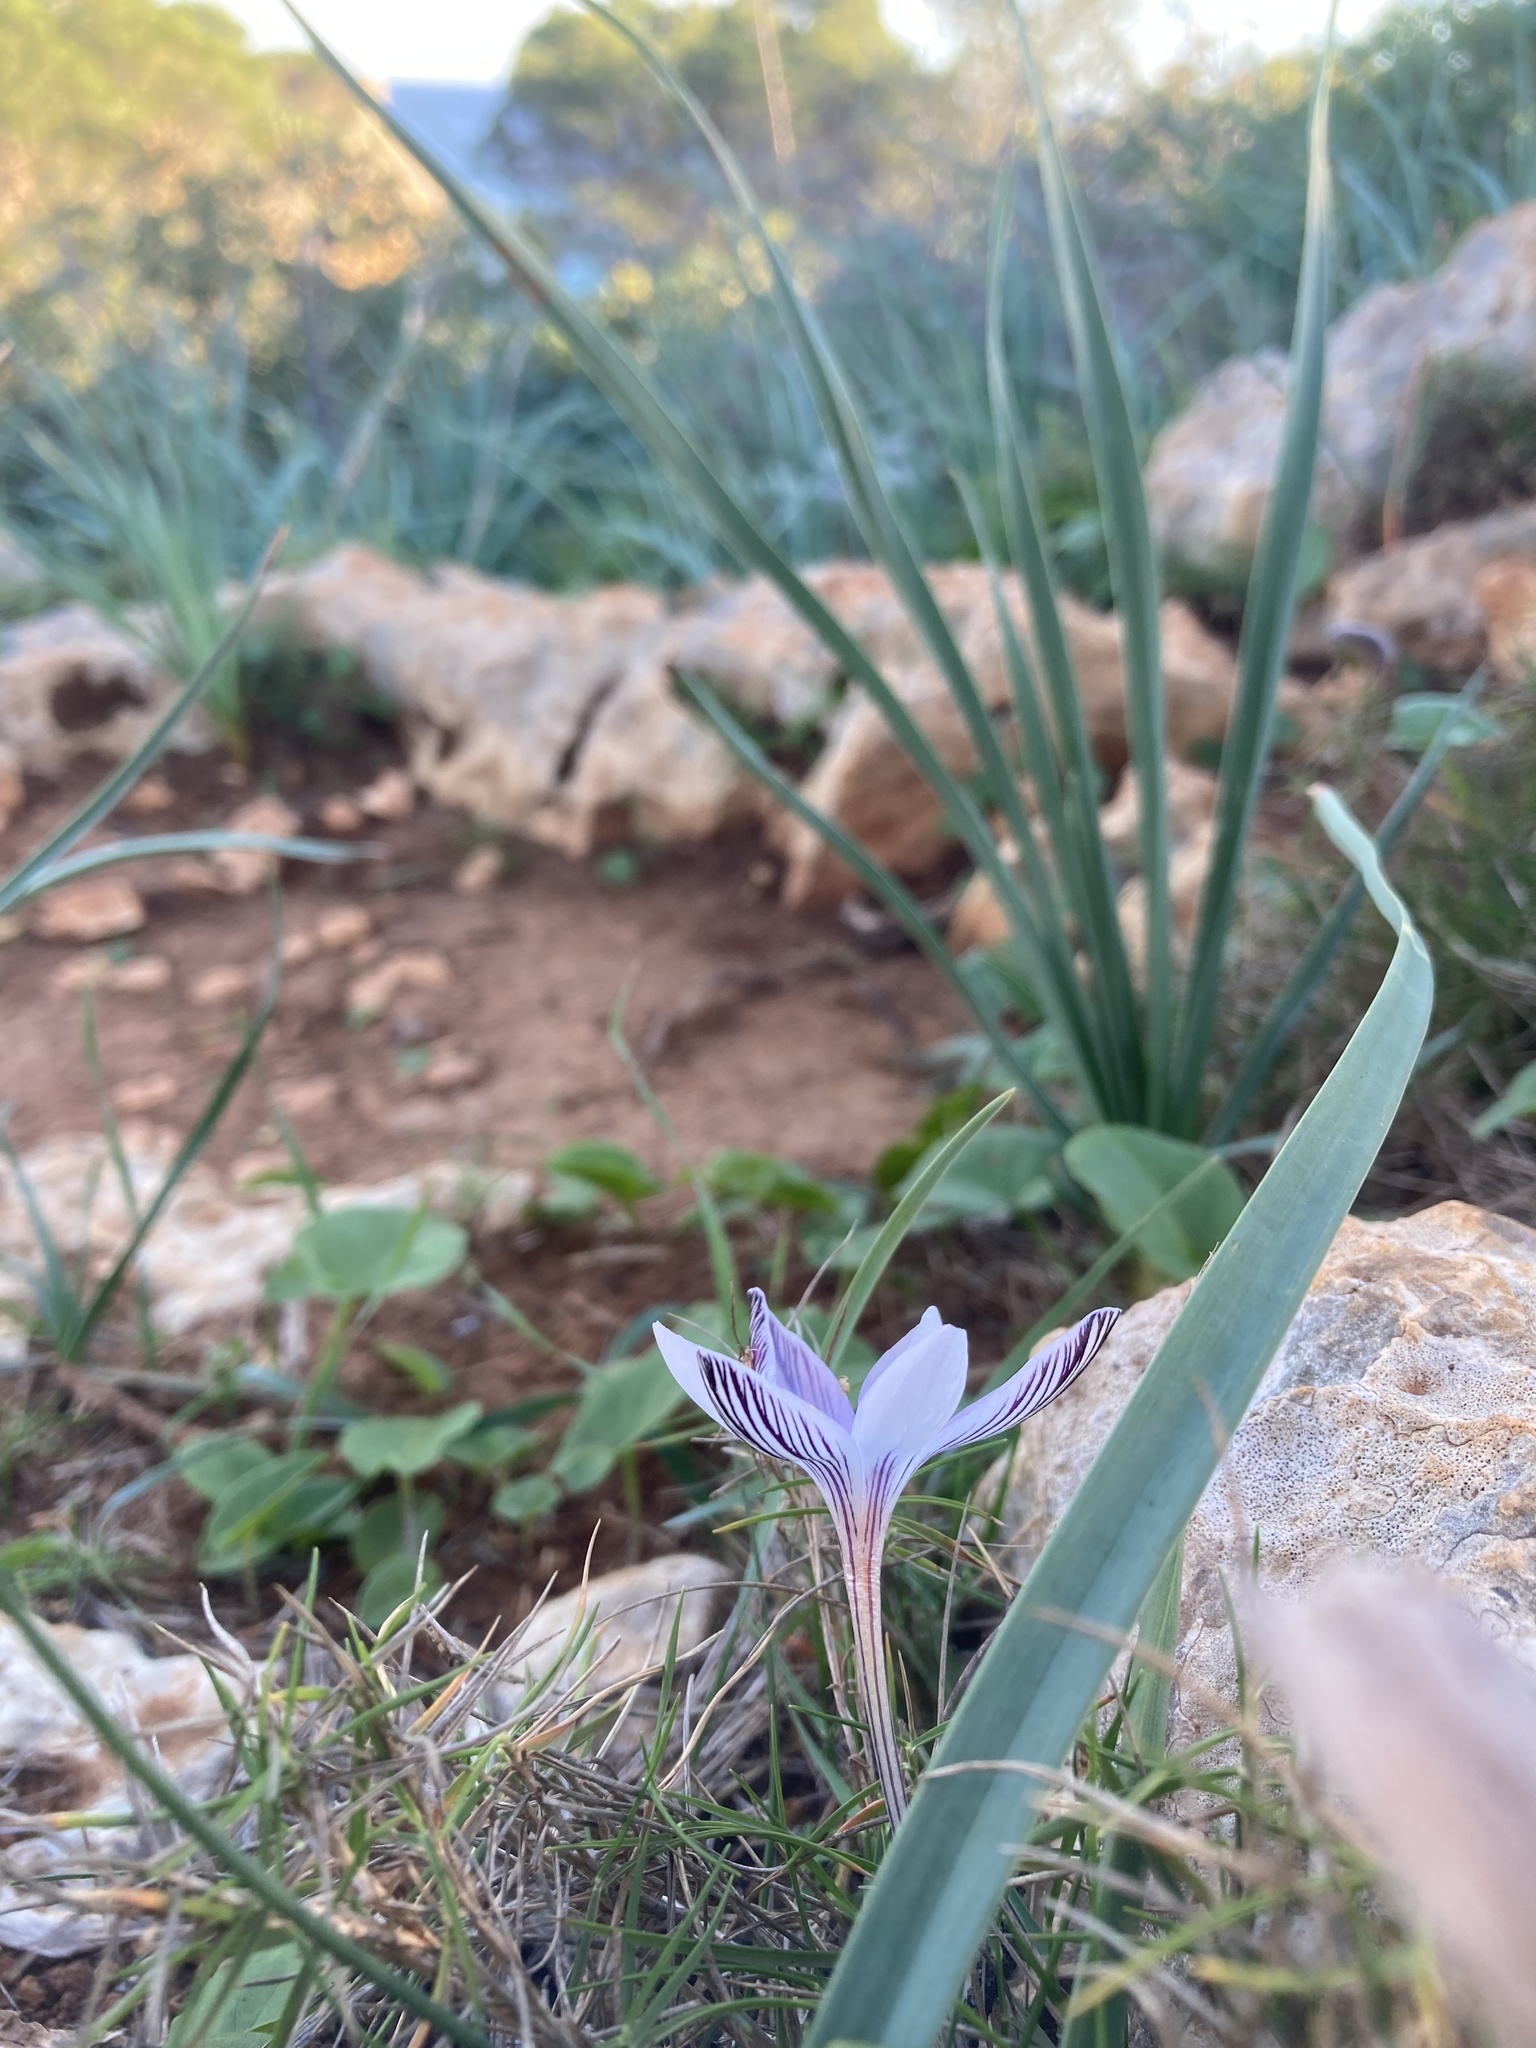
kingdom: Plantae
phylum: Tracheophyta
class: Liliopsida
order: Asparagales
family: Iridaceae
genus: Crocus
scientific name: Crocus cambessedesii
